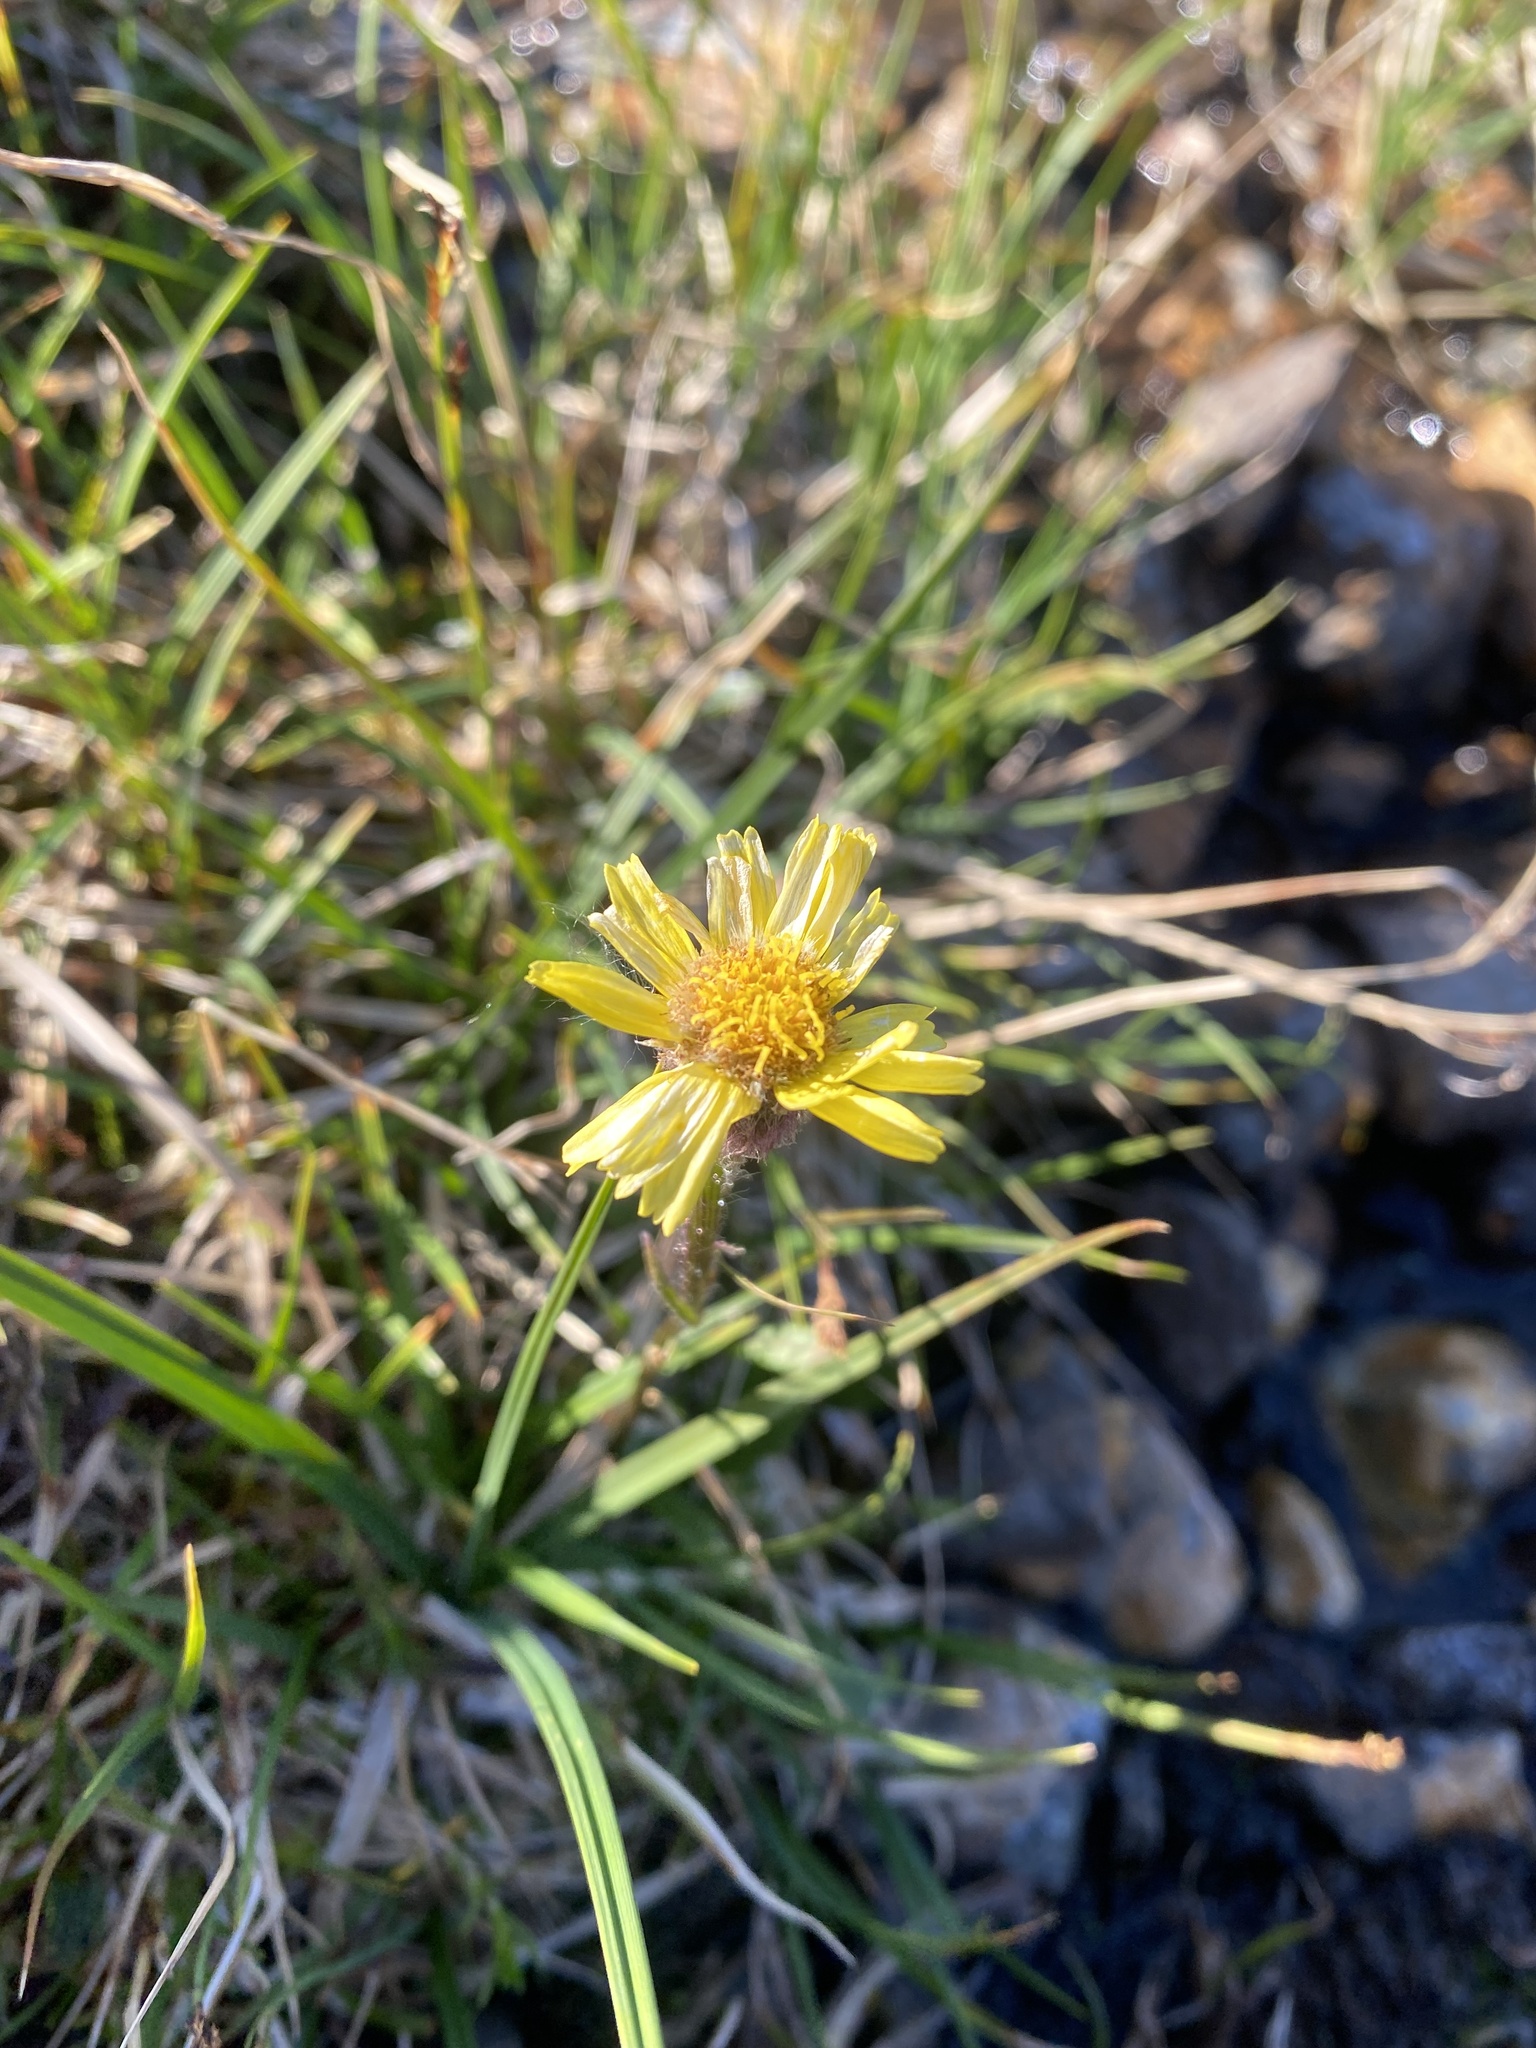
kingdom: Plantae
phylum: Tracheophyta
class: Magnoliopsida
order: Asterales
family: Asteraceae
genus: Tephroseris
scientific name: Tephroseris integrifolia
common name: Field fleawort
